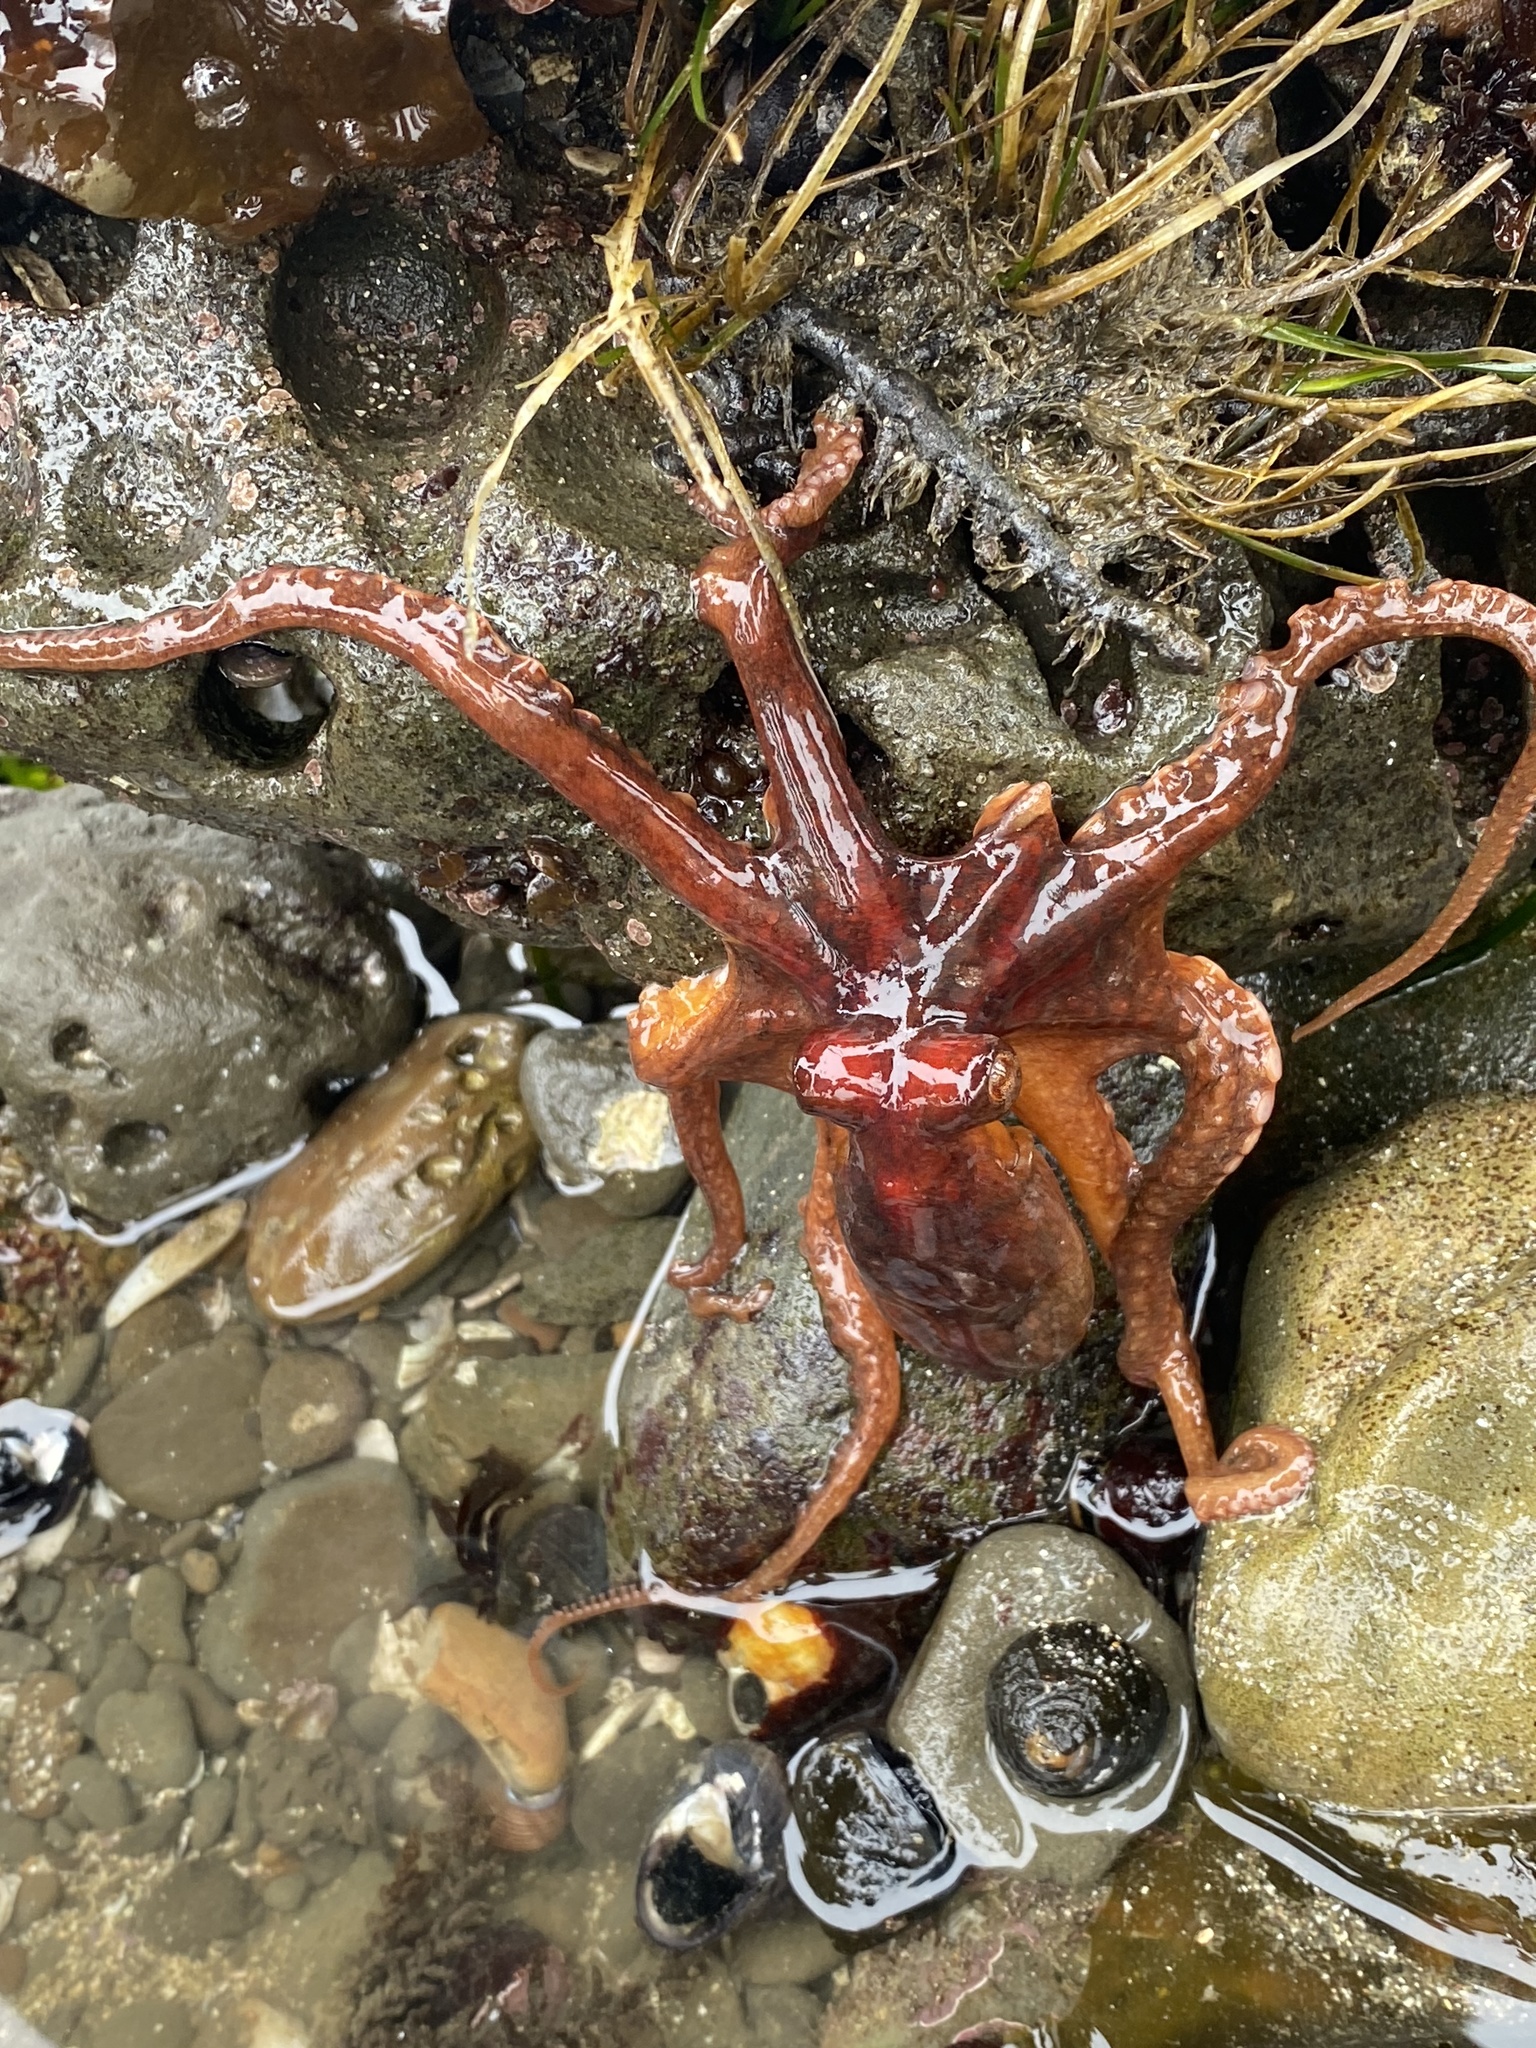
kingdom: Animalia
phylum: Mollusca
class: Cephalopoda
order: Octopoda
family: Octopodidae
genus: Octopus
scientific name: Octopus rubescens
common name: East pacific red octopus
